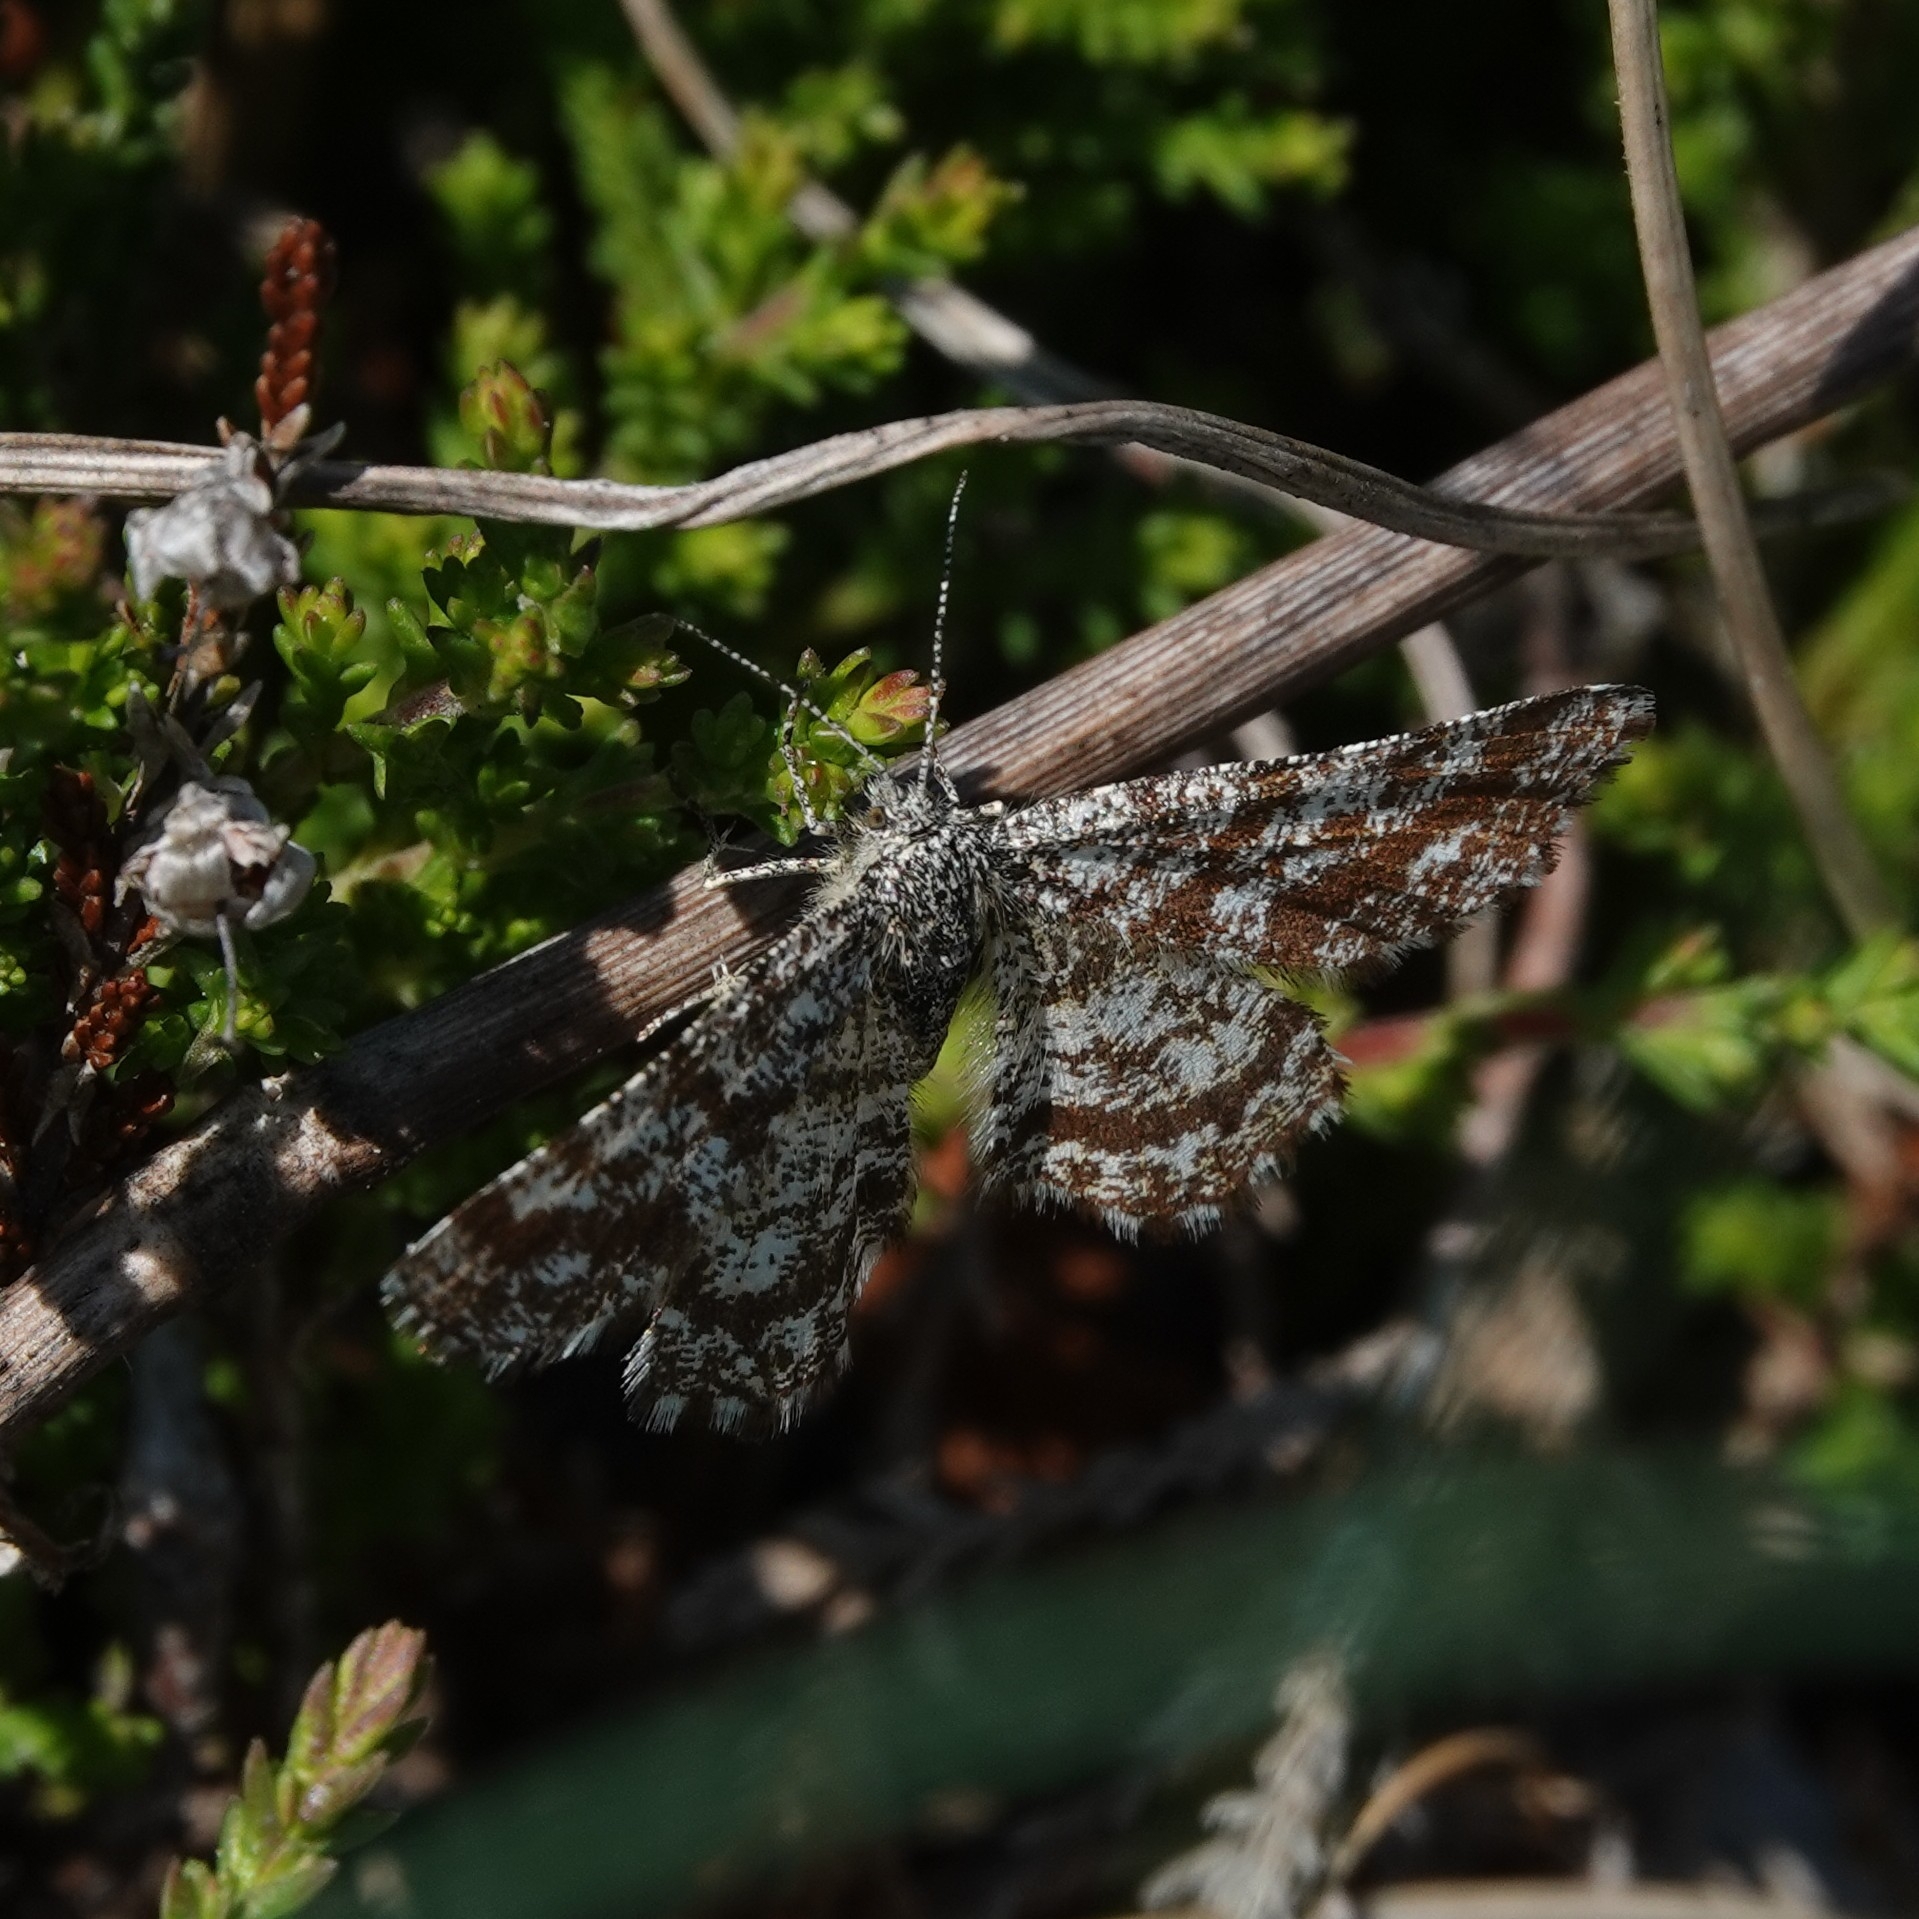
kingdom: Animalia
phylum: Arthropoda
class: Insecta
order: Lepidoptera
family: Geometridae
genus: Ematurga
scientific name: Ematurga atomaria
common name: Common heath
